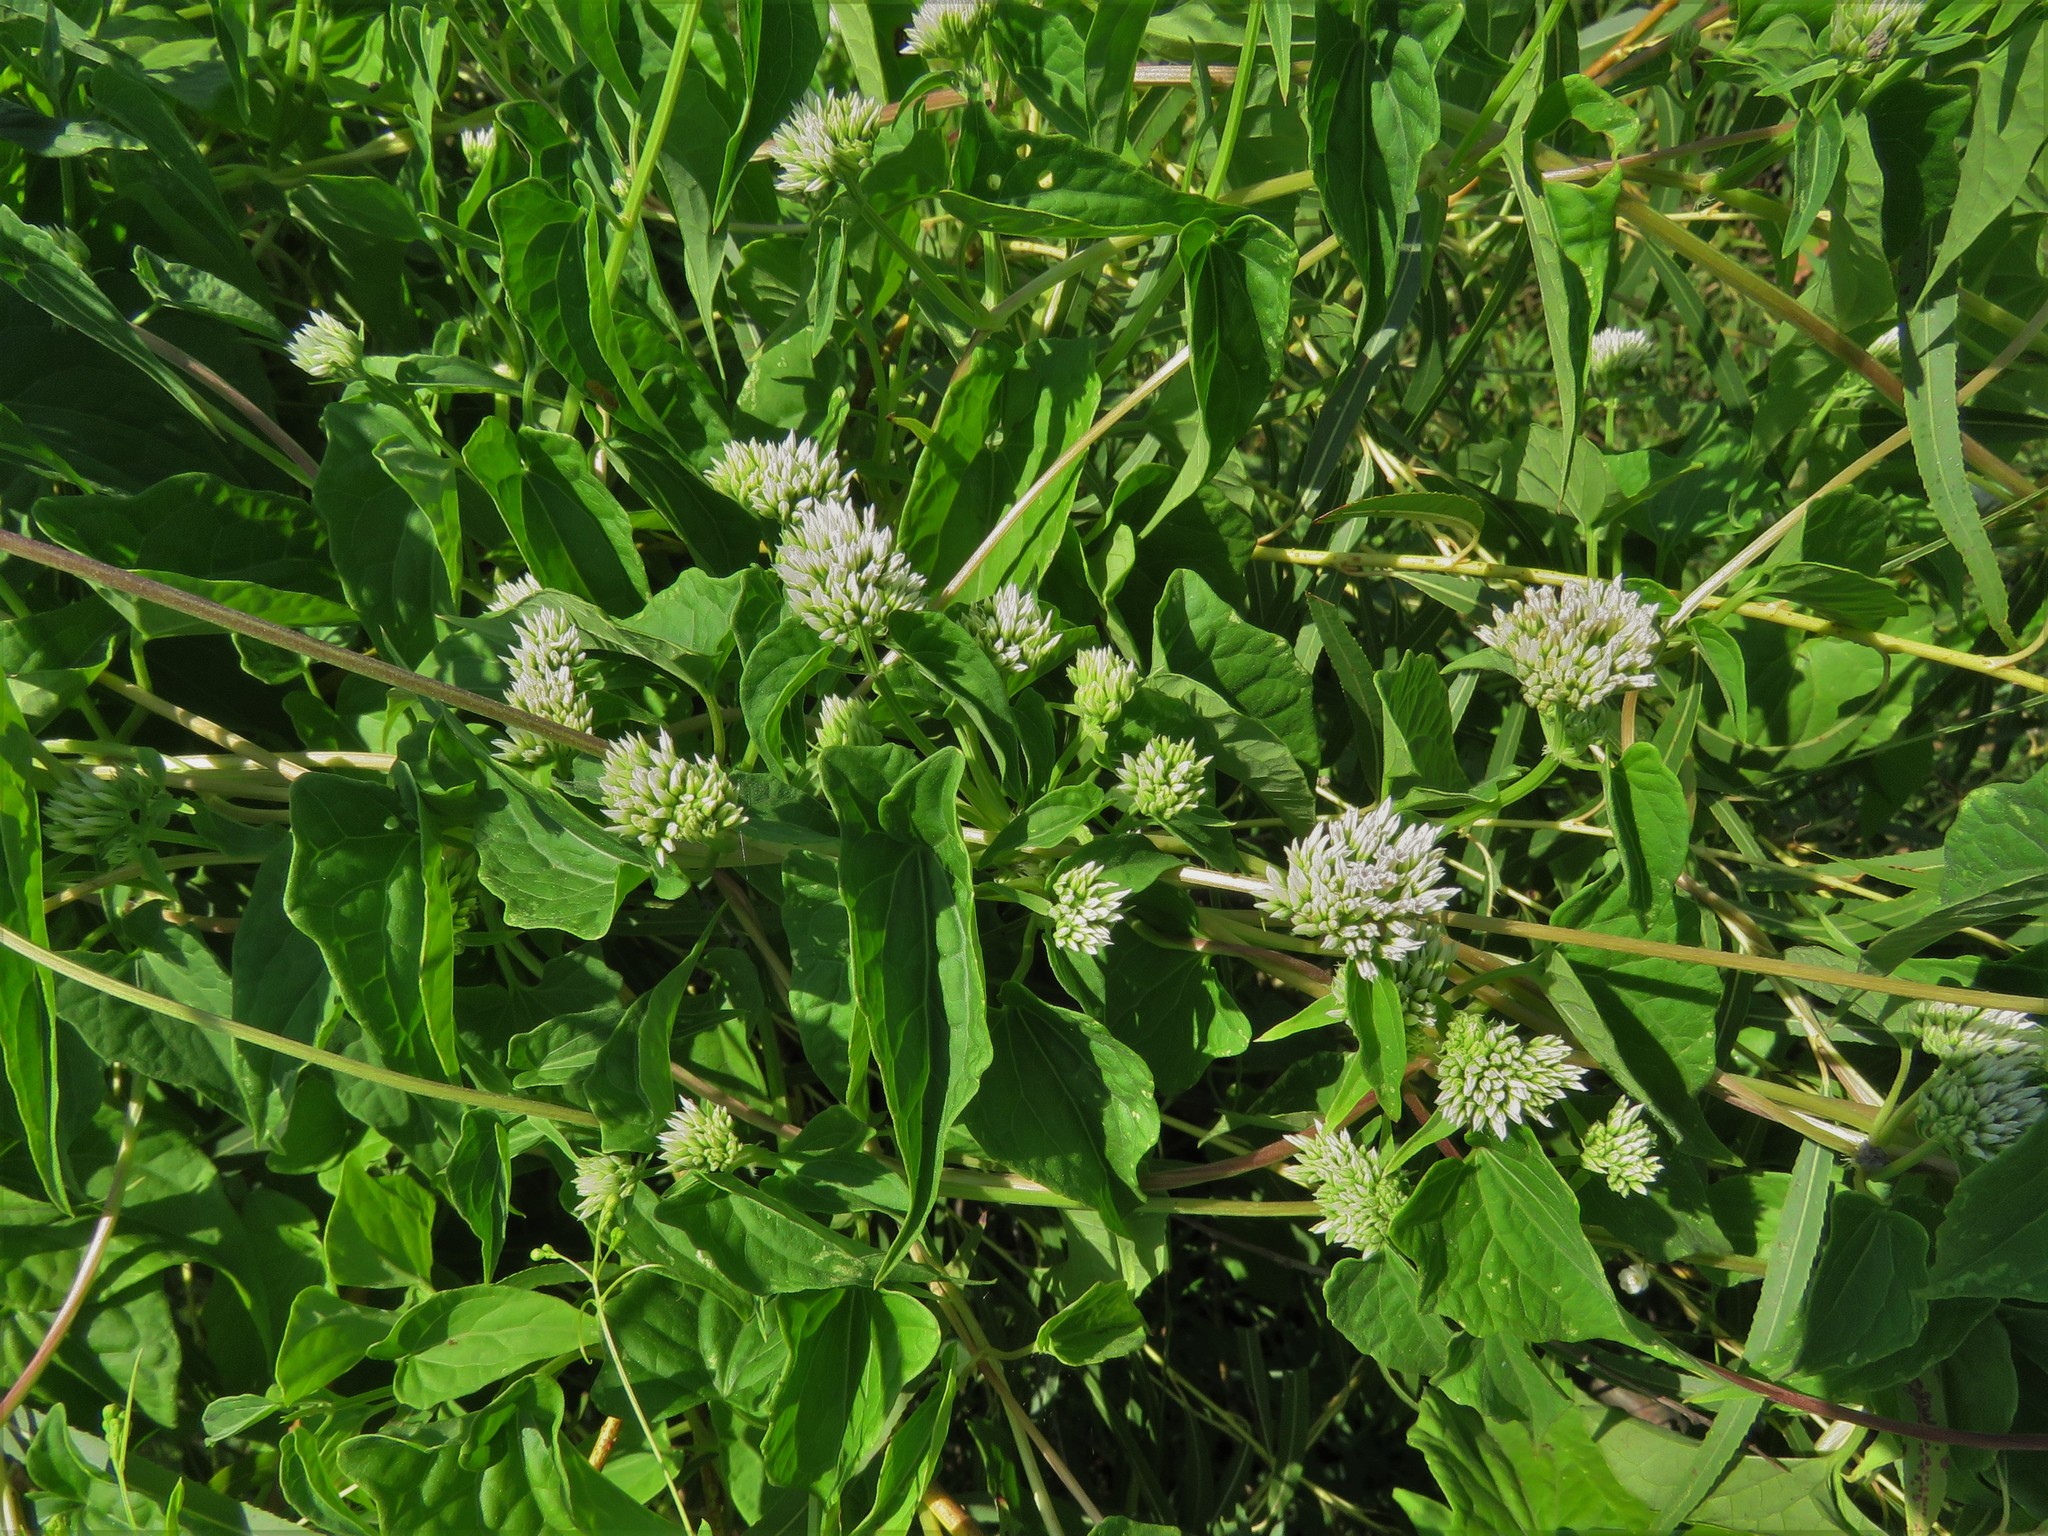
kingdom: Plantae
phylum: Tracheophyta
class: Magnoliopsida
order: Asterales
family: Asteraceae
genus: Mikania
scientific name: Mikania scandens
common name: Climbing hempvine
